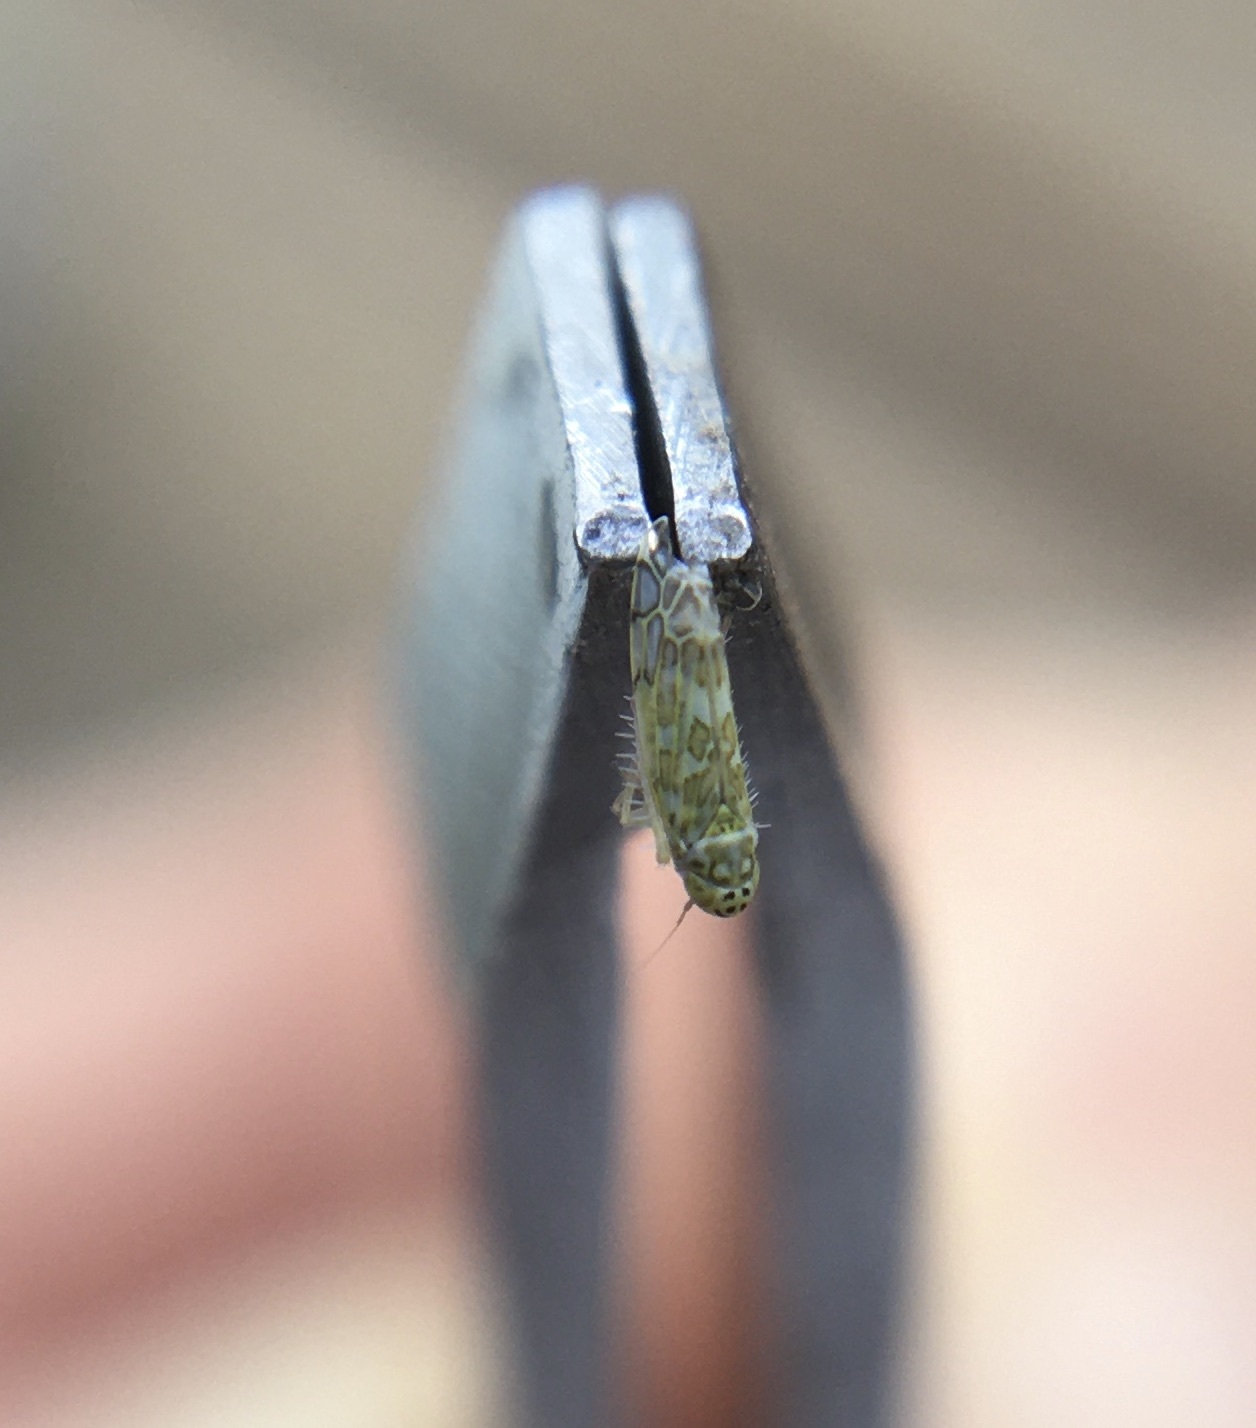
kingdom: Animalia
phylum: Arthropoda
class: Insecta
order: Hemiptera
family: Cicadellidae
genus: Eupteryx
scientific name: Eupteryx decemnotata
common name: Ligurian leafhopper
